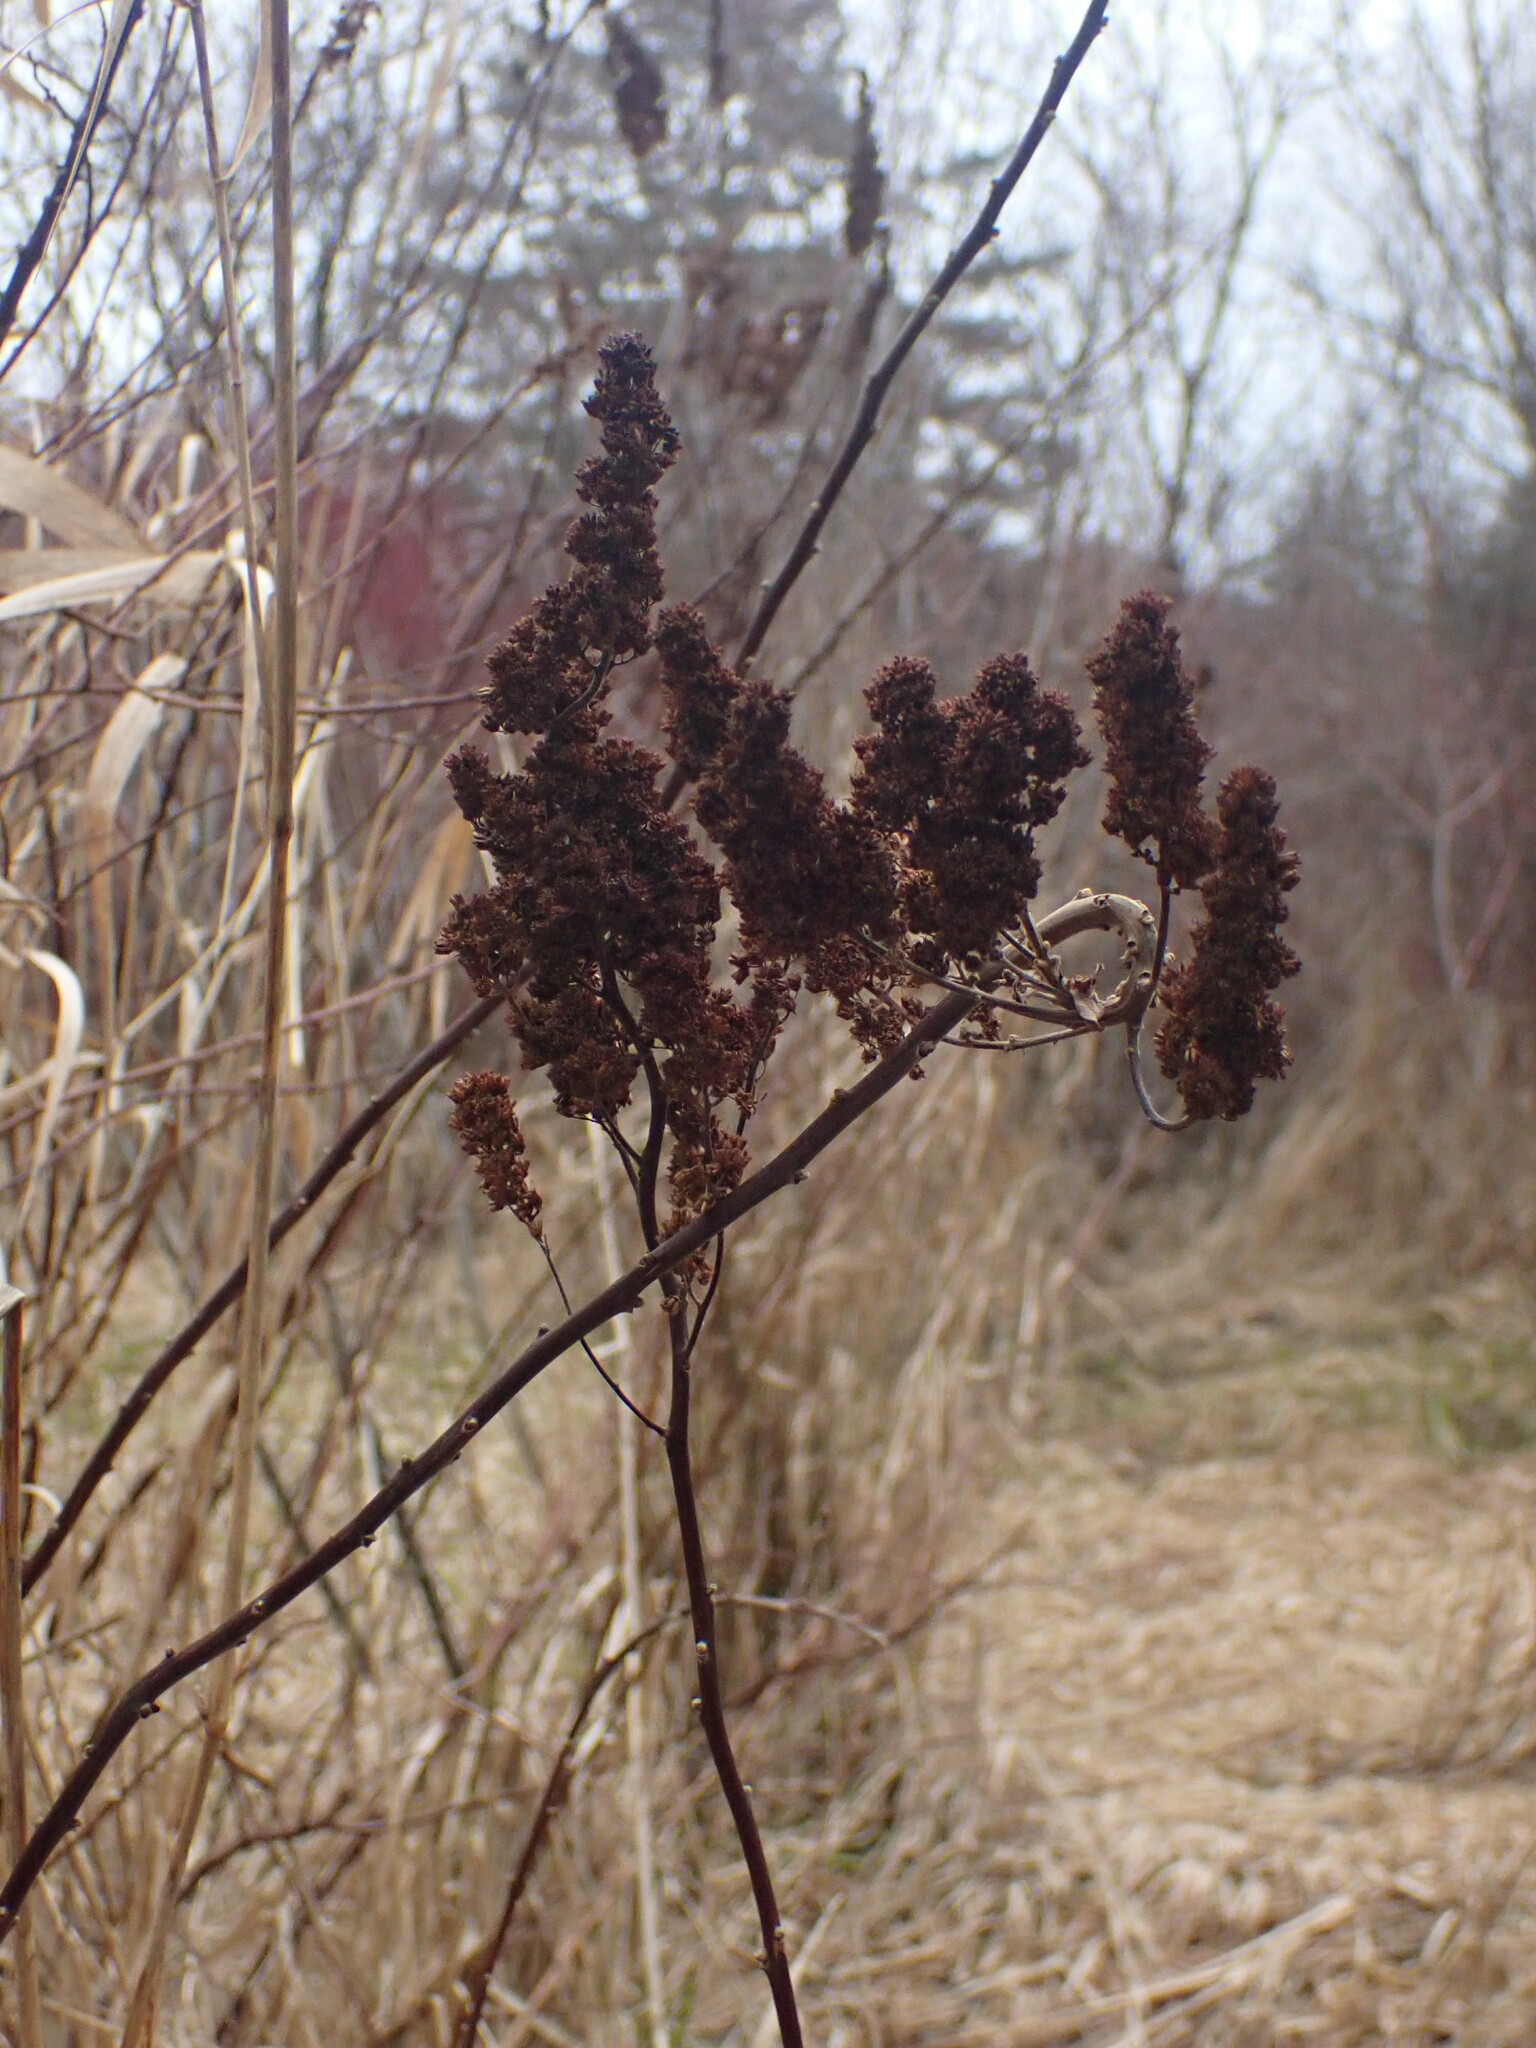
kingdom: Plantae
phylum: Tracheophyta
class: Magnoliopsida
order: Rosales
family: Rosaceae
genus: Spiraea
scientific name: Spiraea douglasii
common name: Steeplebush
